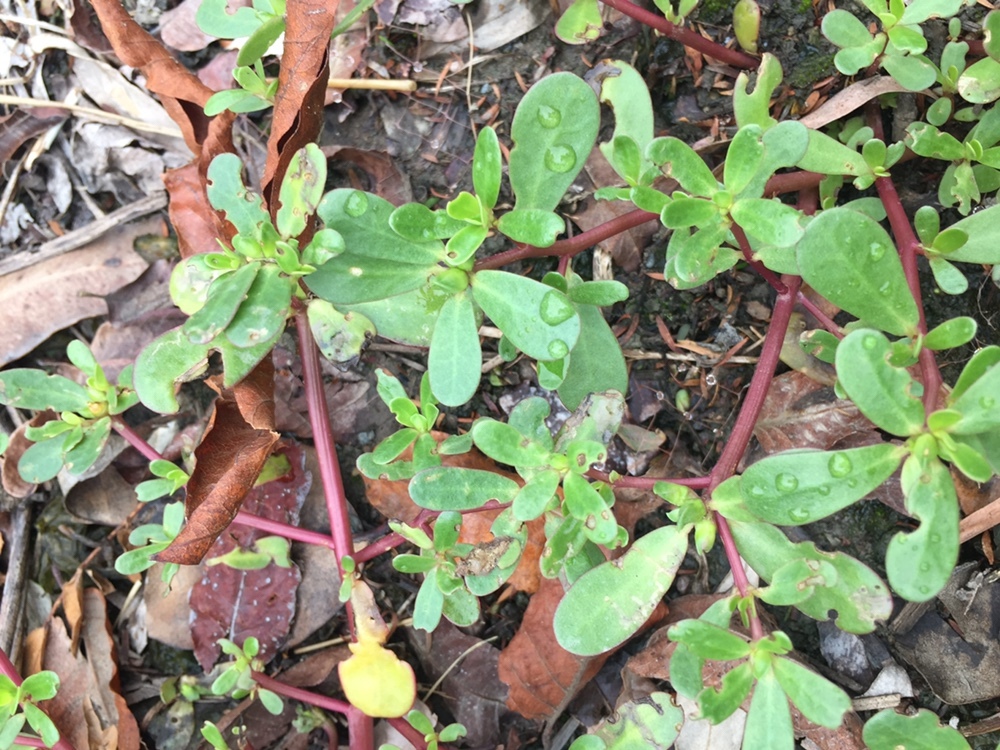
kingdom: Plantae
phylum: Tracheophyta
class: Magnoliopsida
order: Caryophyllales
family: Portulacaceae
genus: Portulaca
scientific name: Portulaca oleracea
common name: Common purslane
